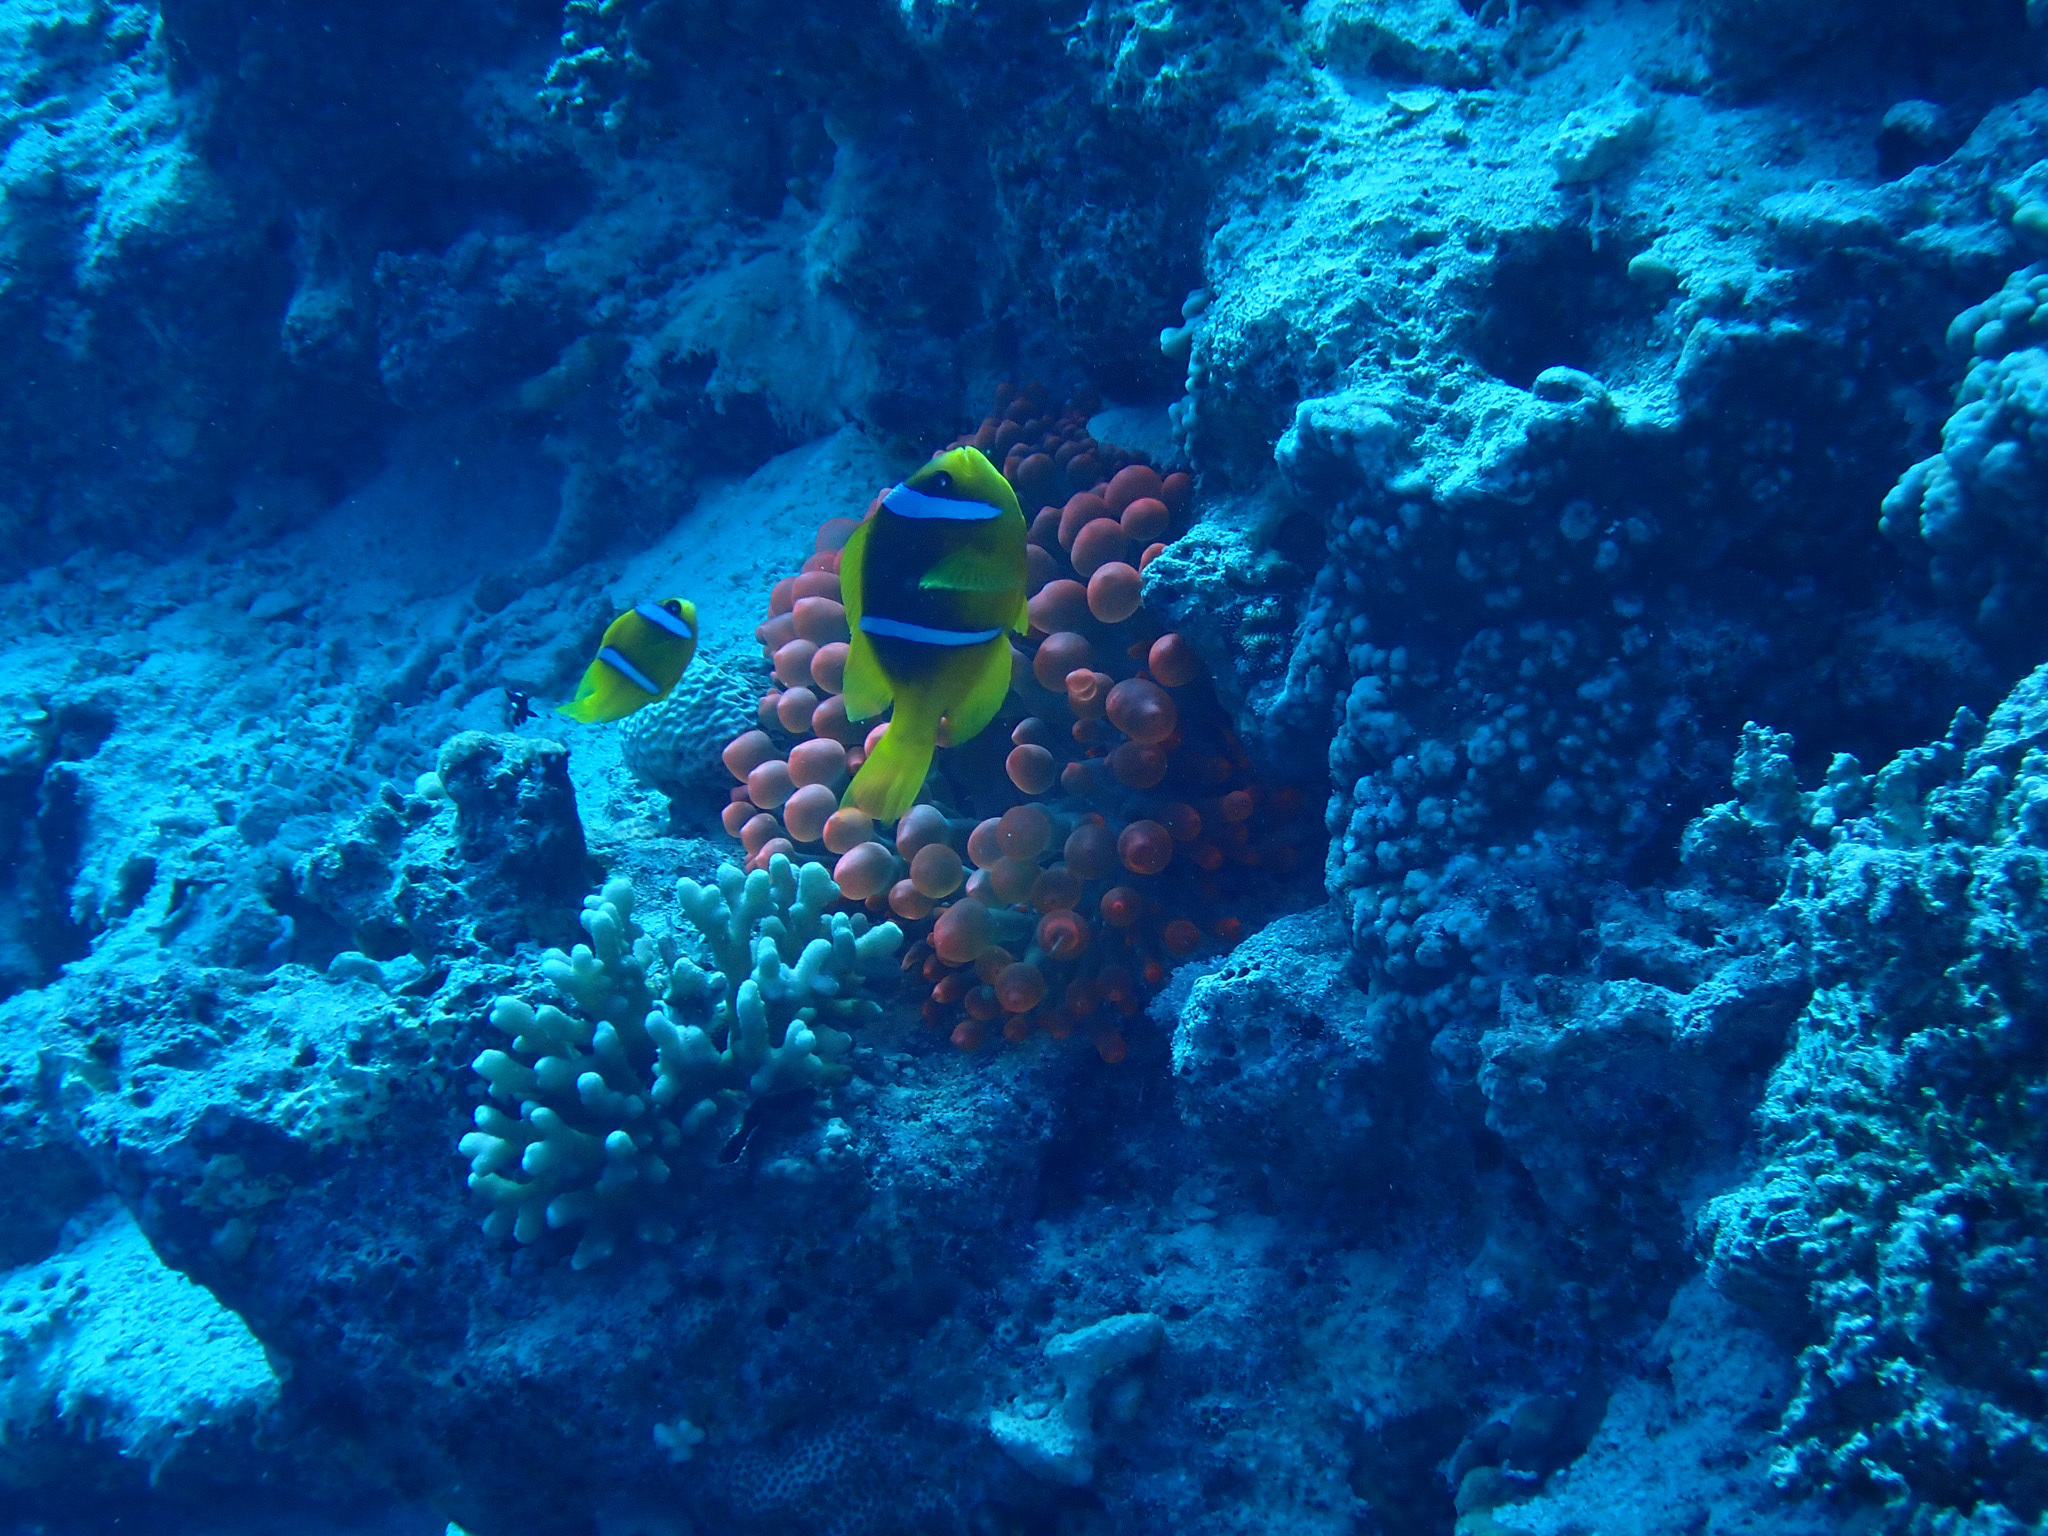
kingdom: Animalia
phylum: Chordata
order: Perciformes
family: Pomacentridae
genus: Amphiprion
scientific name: Amphiprion bicinctus
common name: Two-banded anemonefish
